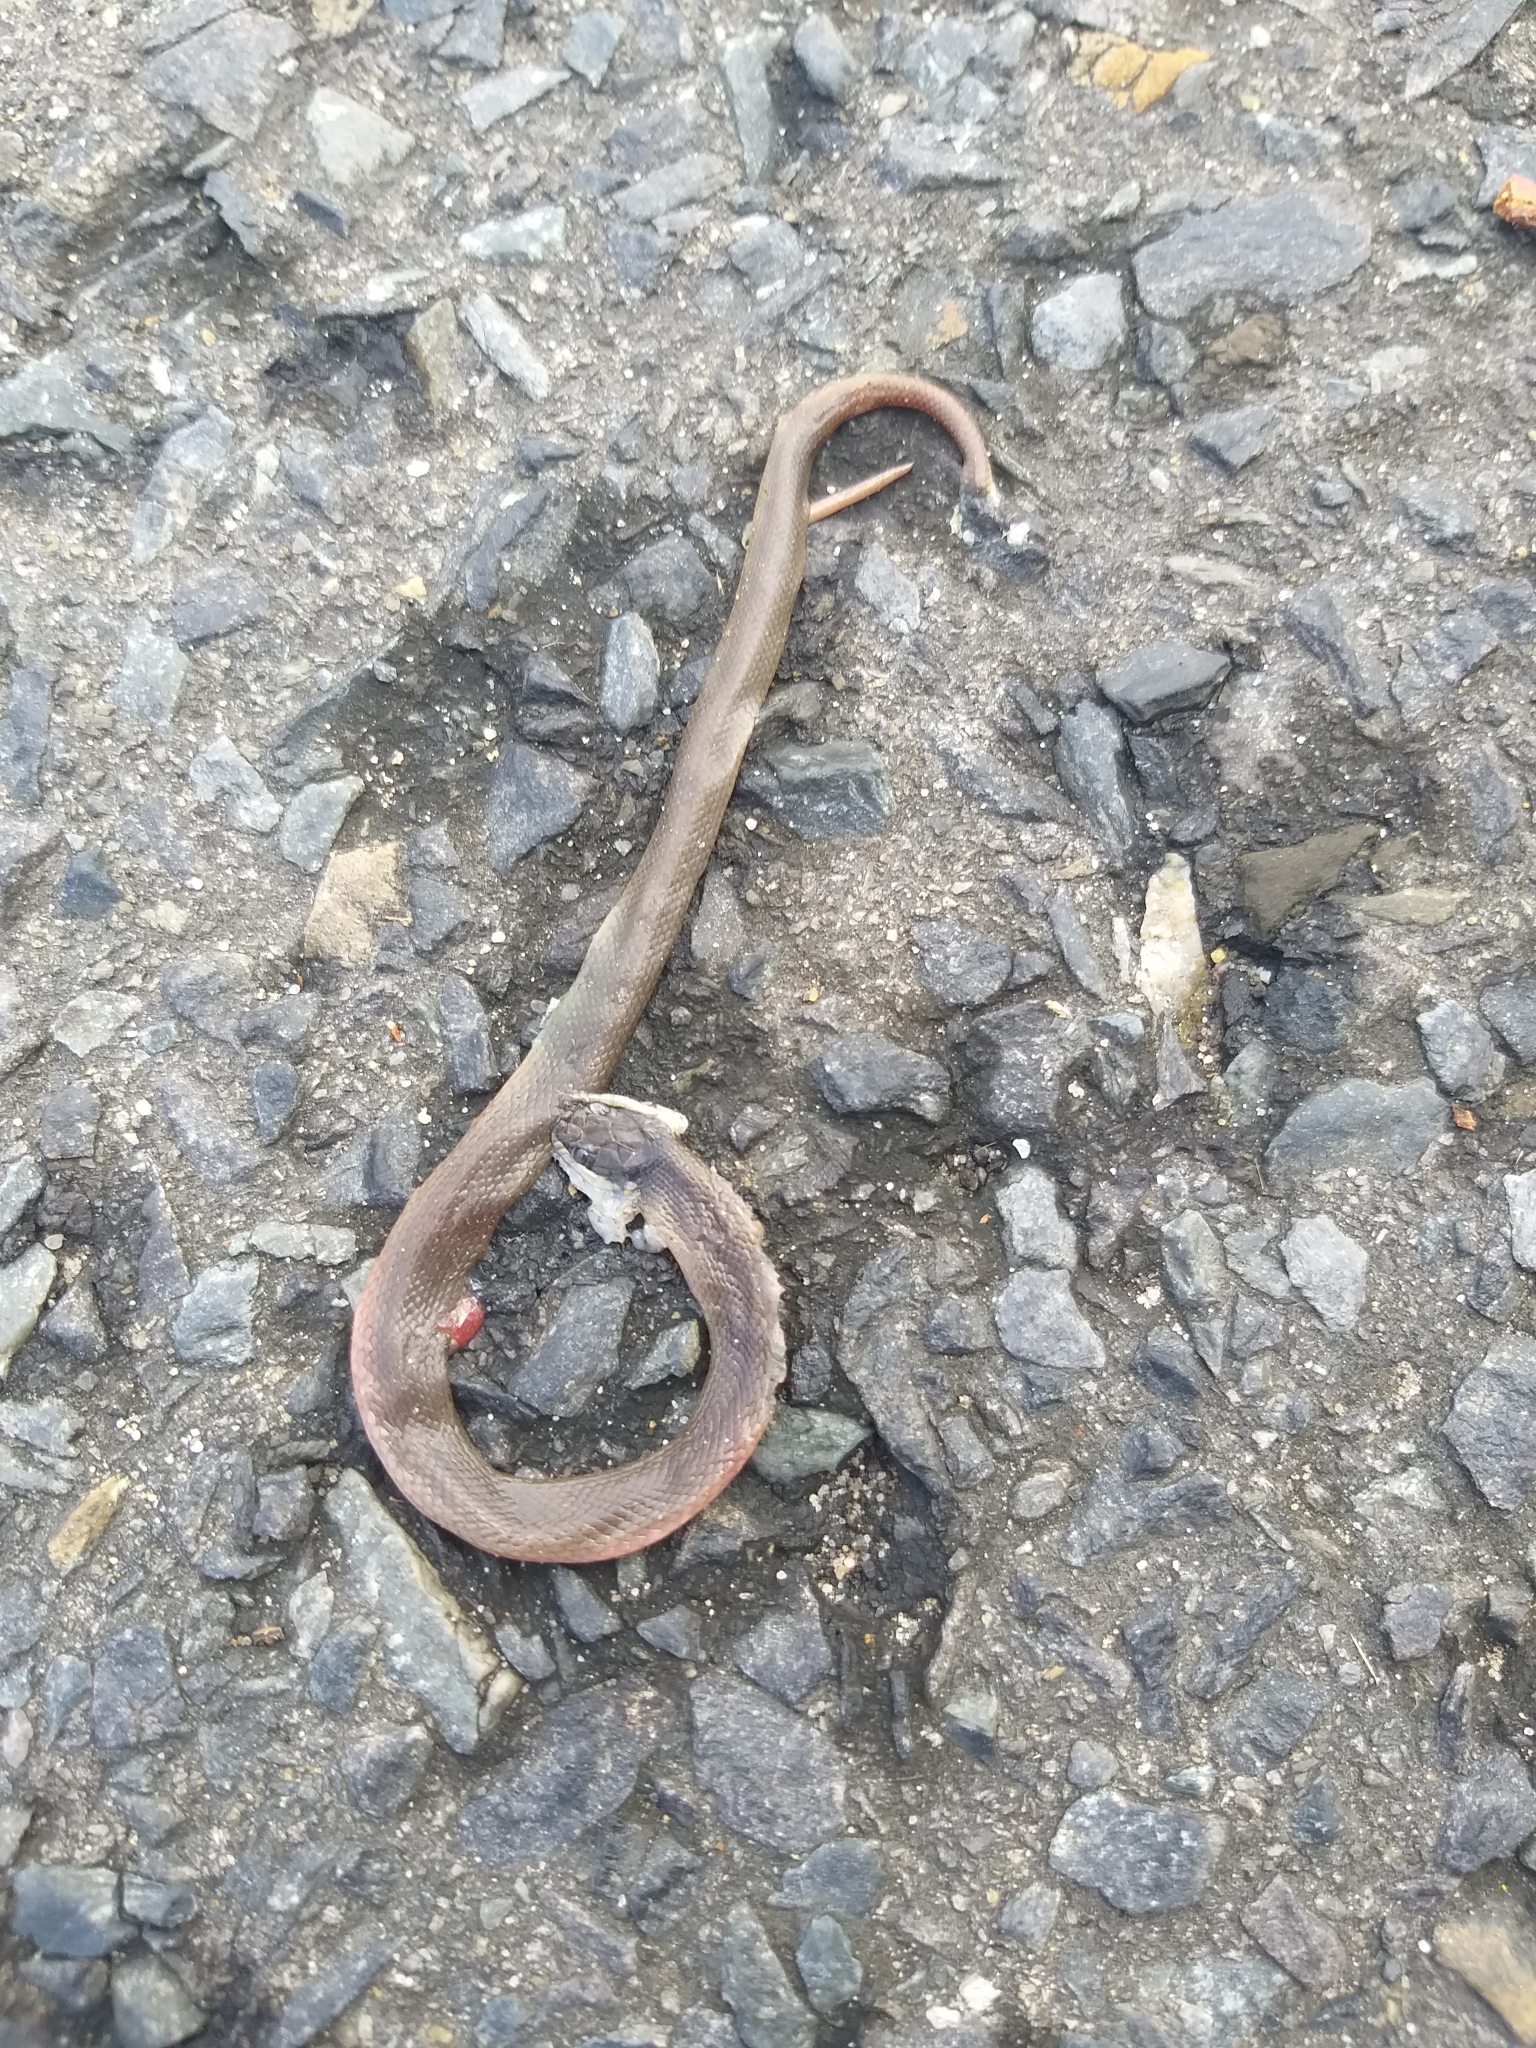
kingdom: Animalia
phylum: Chordata
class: Squamata
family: Lamprophiidae
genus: Lycodonomorphus
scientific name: Lycodonomorphus rufulus
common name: Brown water snake
